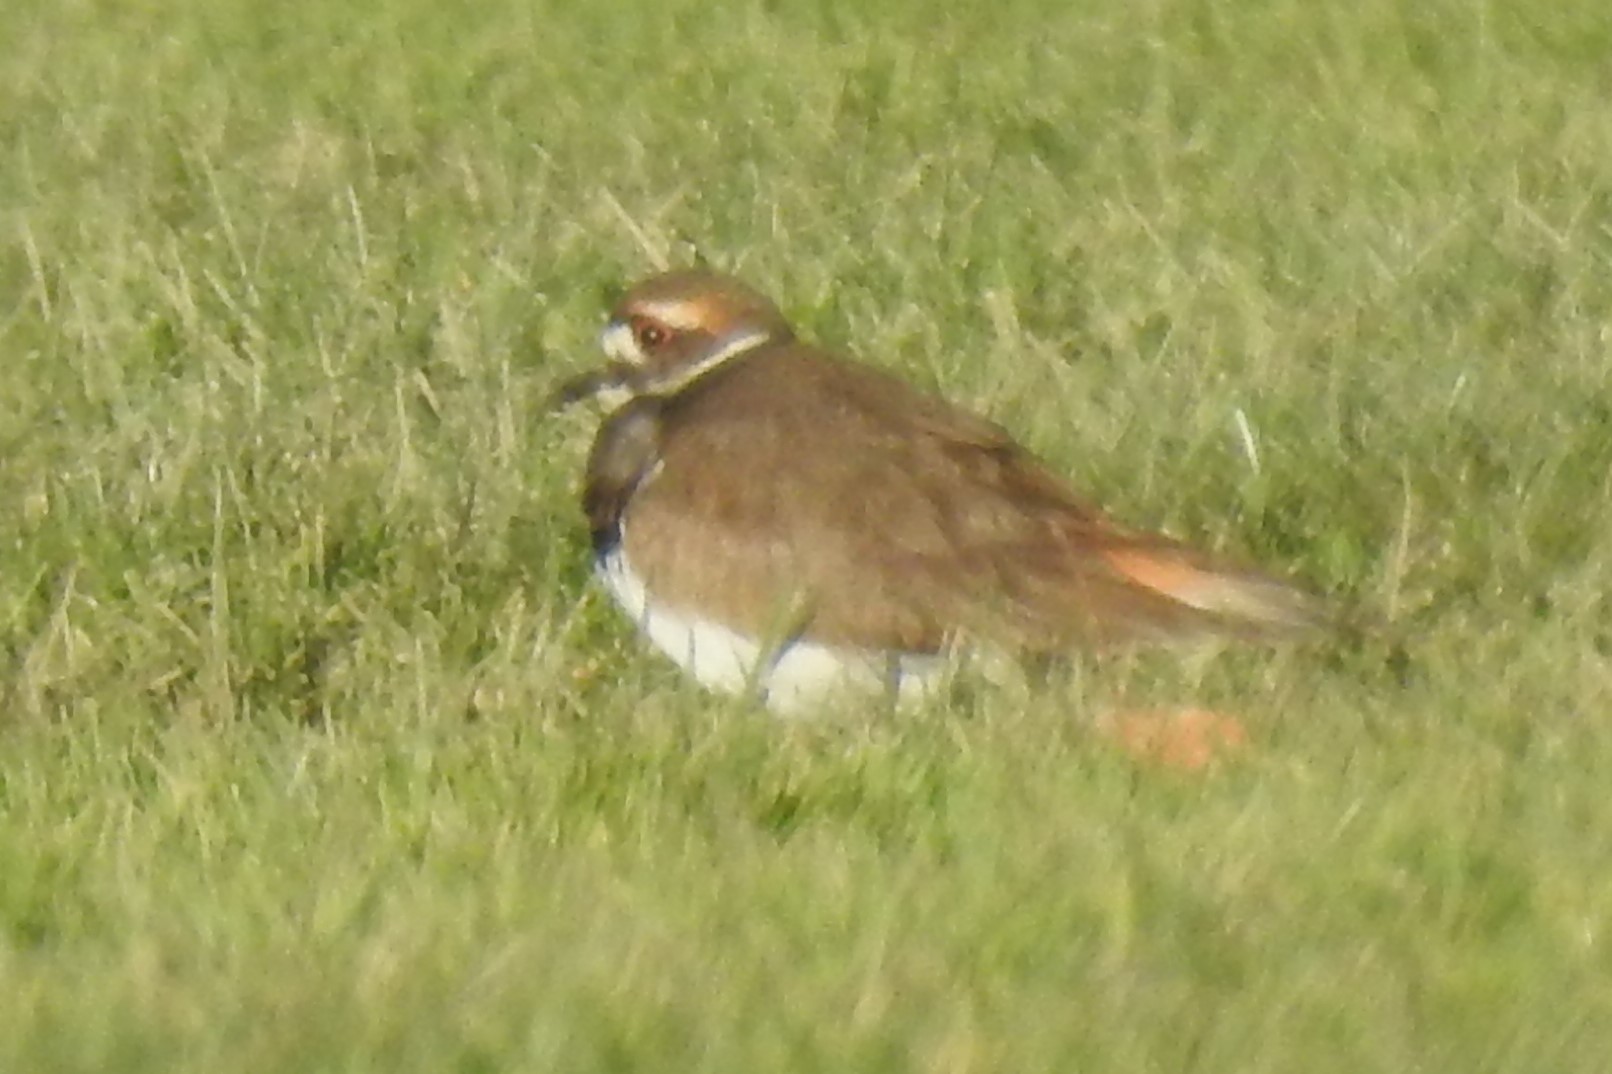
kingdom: Animalia
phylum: Chordata
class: Aves
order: Charadriiformes
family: Charadriidae
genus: Charadrius
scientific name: Charadrius vociferus
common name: Killdeer
